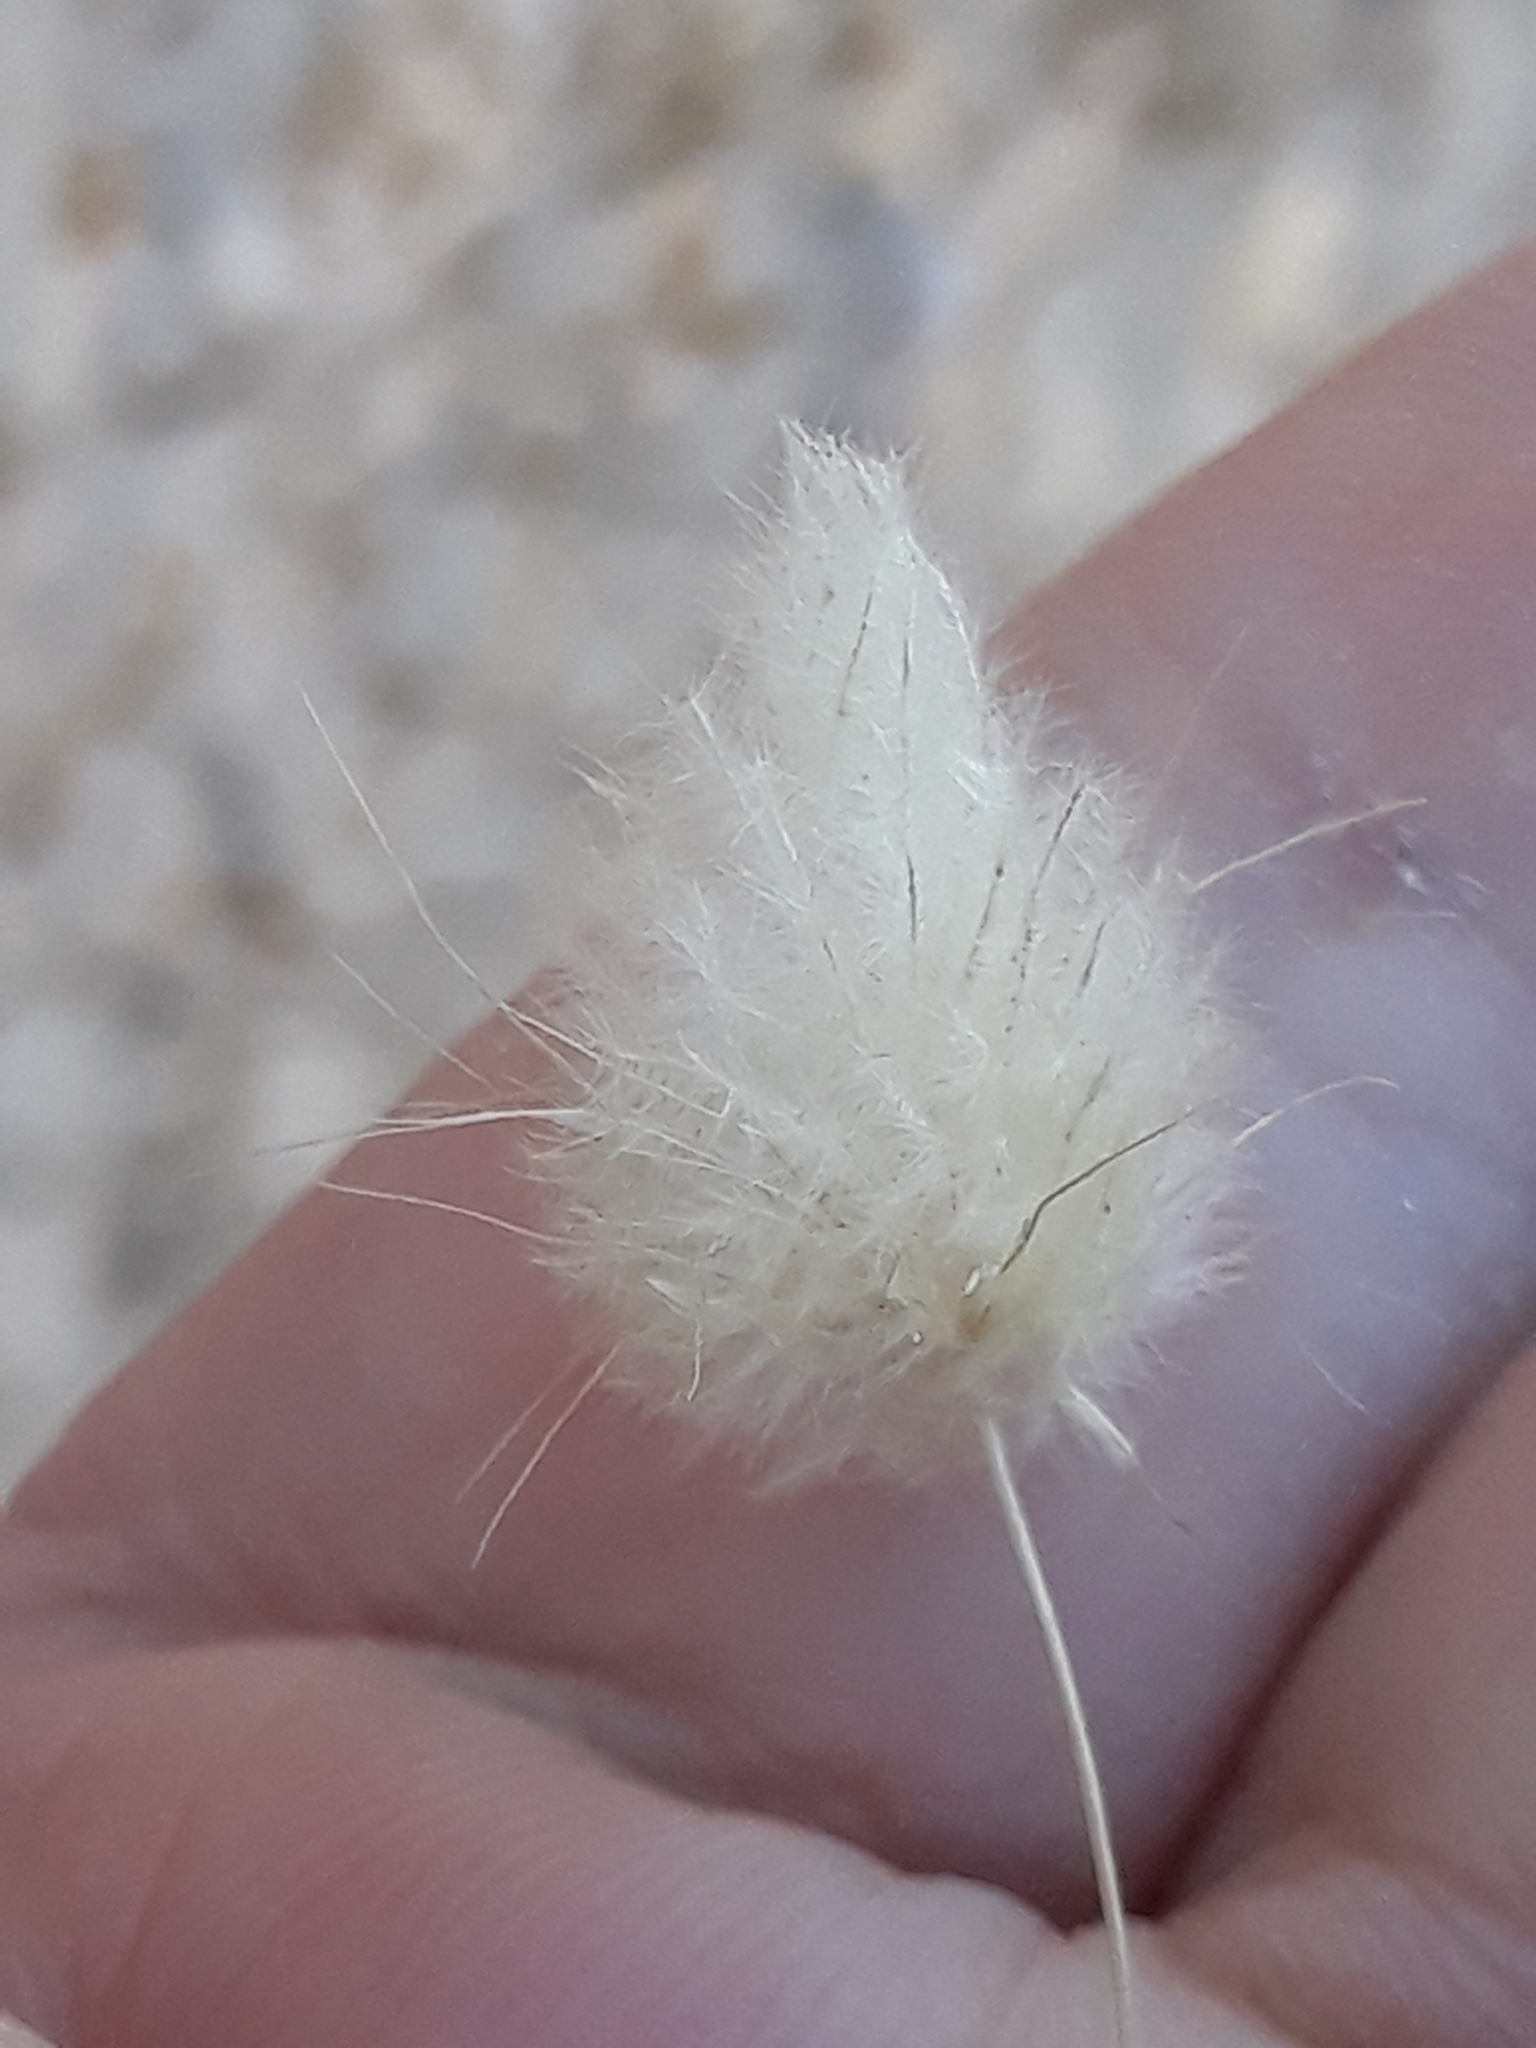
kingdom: Plantae
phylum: Tracheophyta
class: Liliopsida
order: Poales
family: Poaceae
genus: Lagurus
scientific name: Lagurus ovatus
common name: Hare's-tail
